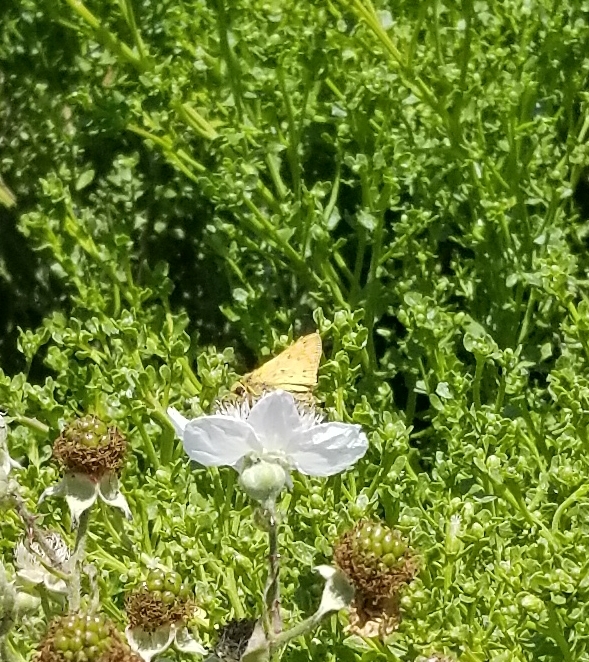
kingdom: Animalia
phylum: Arthropoda
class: Insecta
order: Lepidoptera
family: Hesperiidae
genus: Hylephila
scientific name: Hylephila phyleus
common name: Fiery skipper
